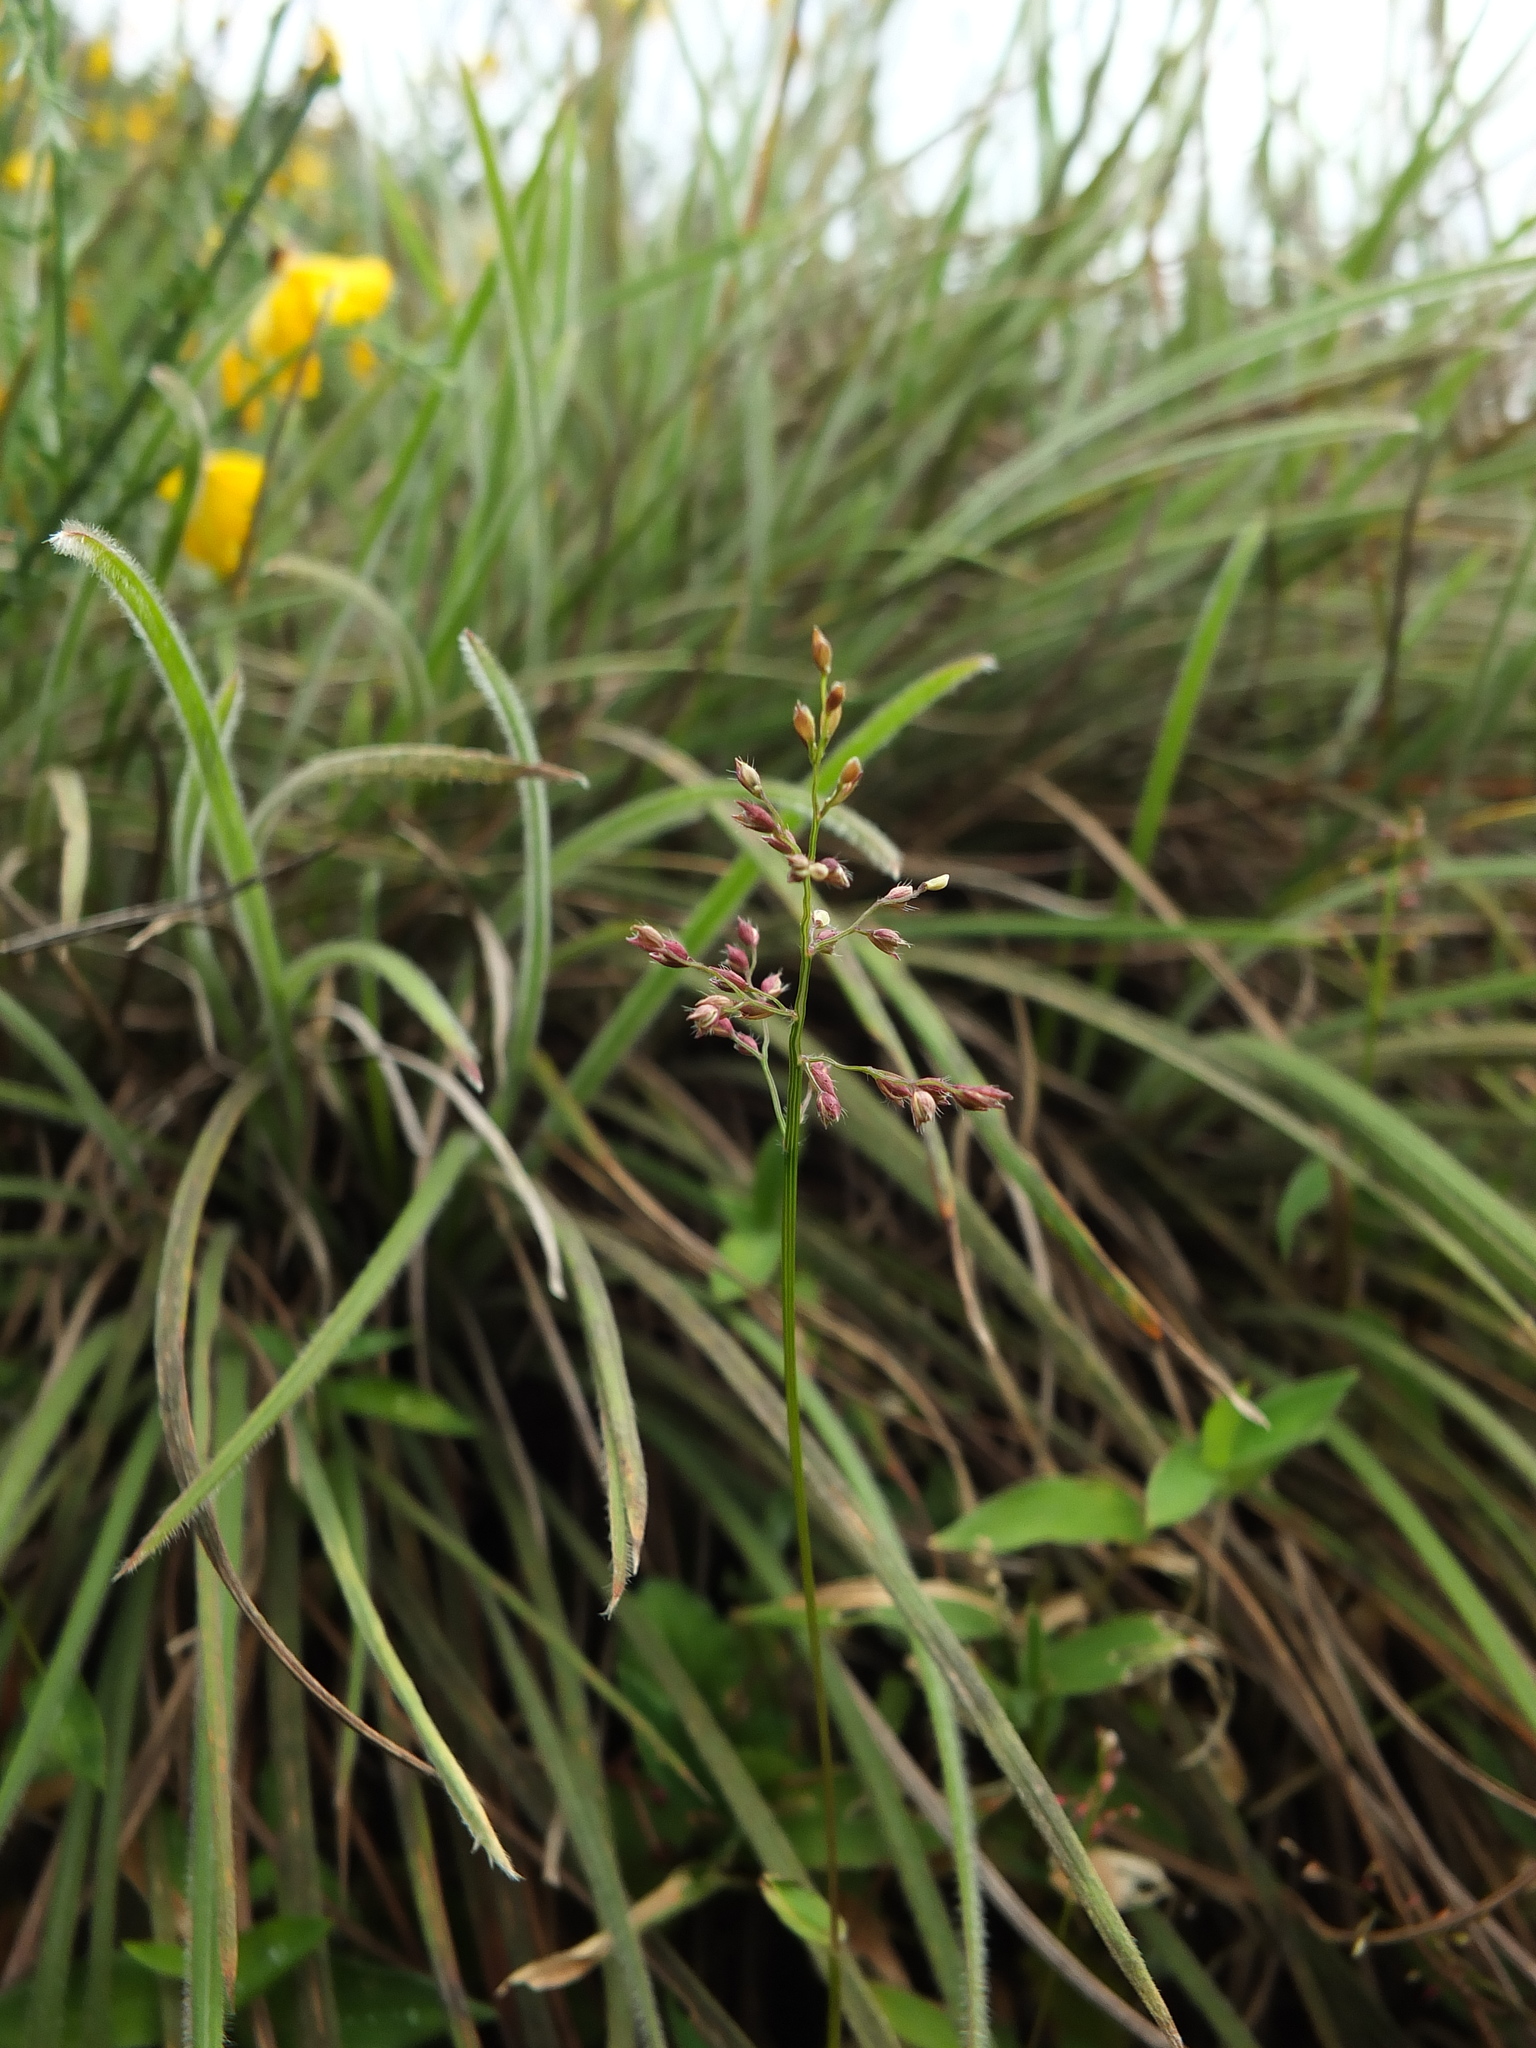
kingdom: Plantae
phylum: Tracheophyta
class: Liliopsida
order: Poales
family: Poaceae
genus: Isachne
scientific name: Isachne kunthiana
